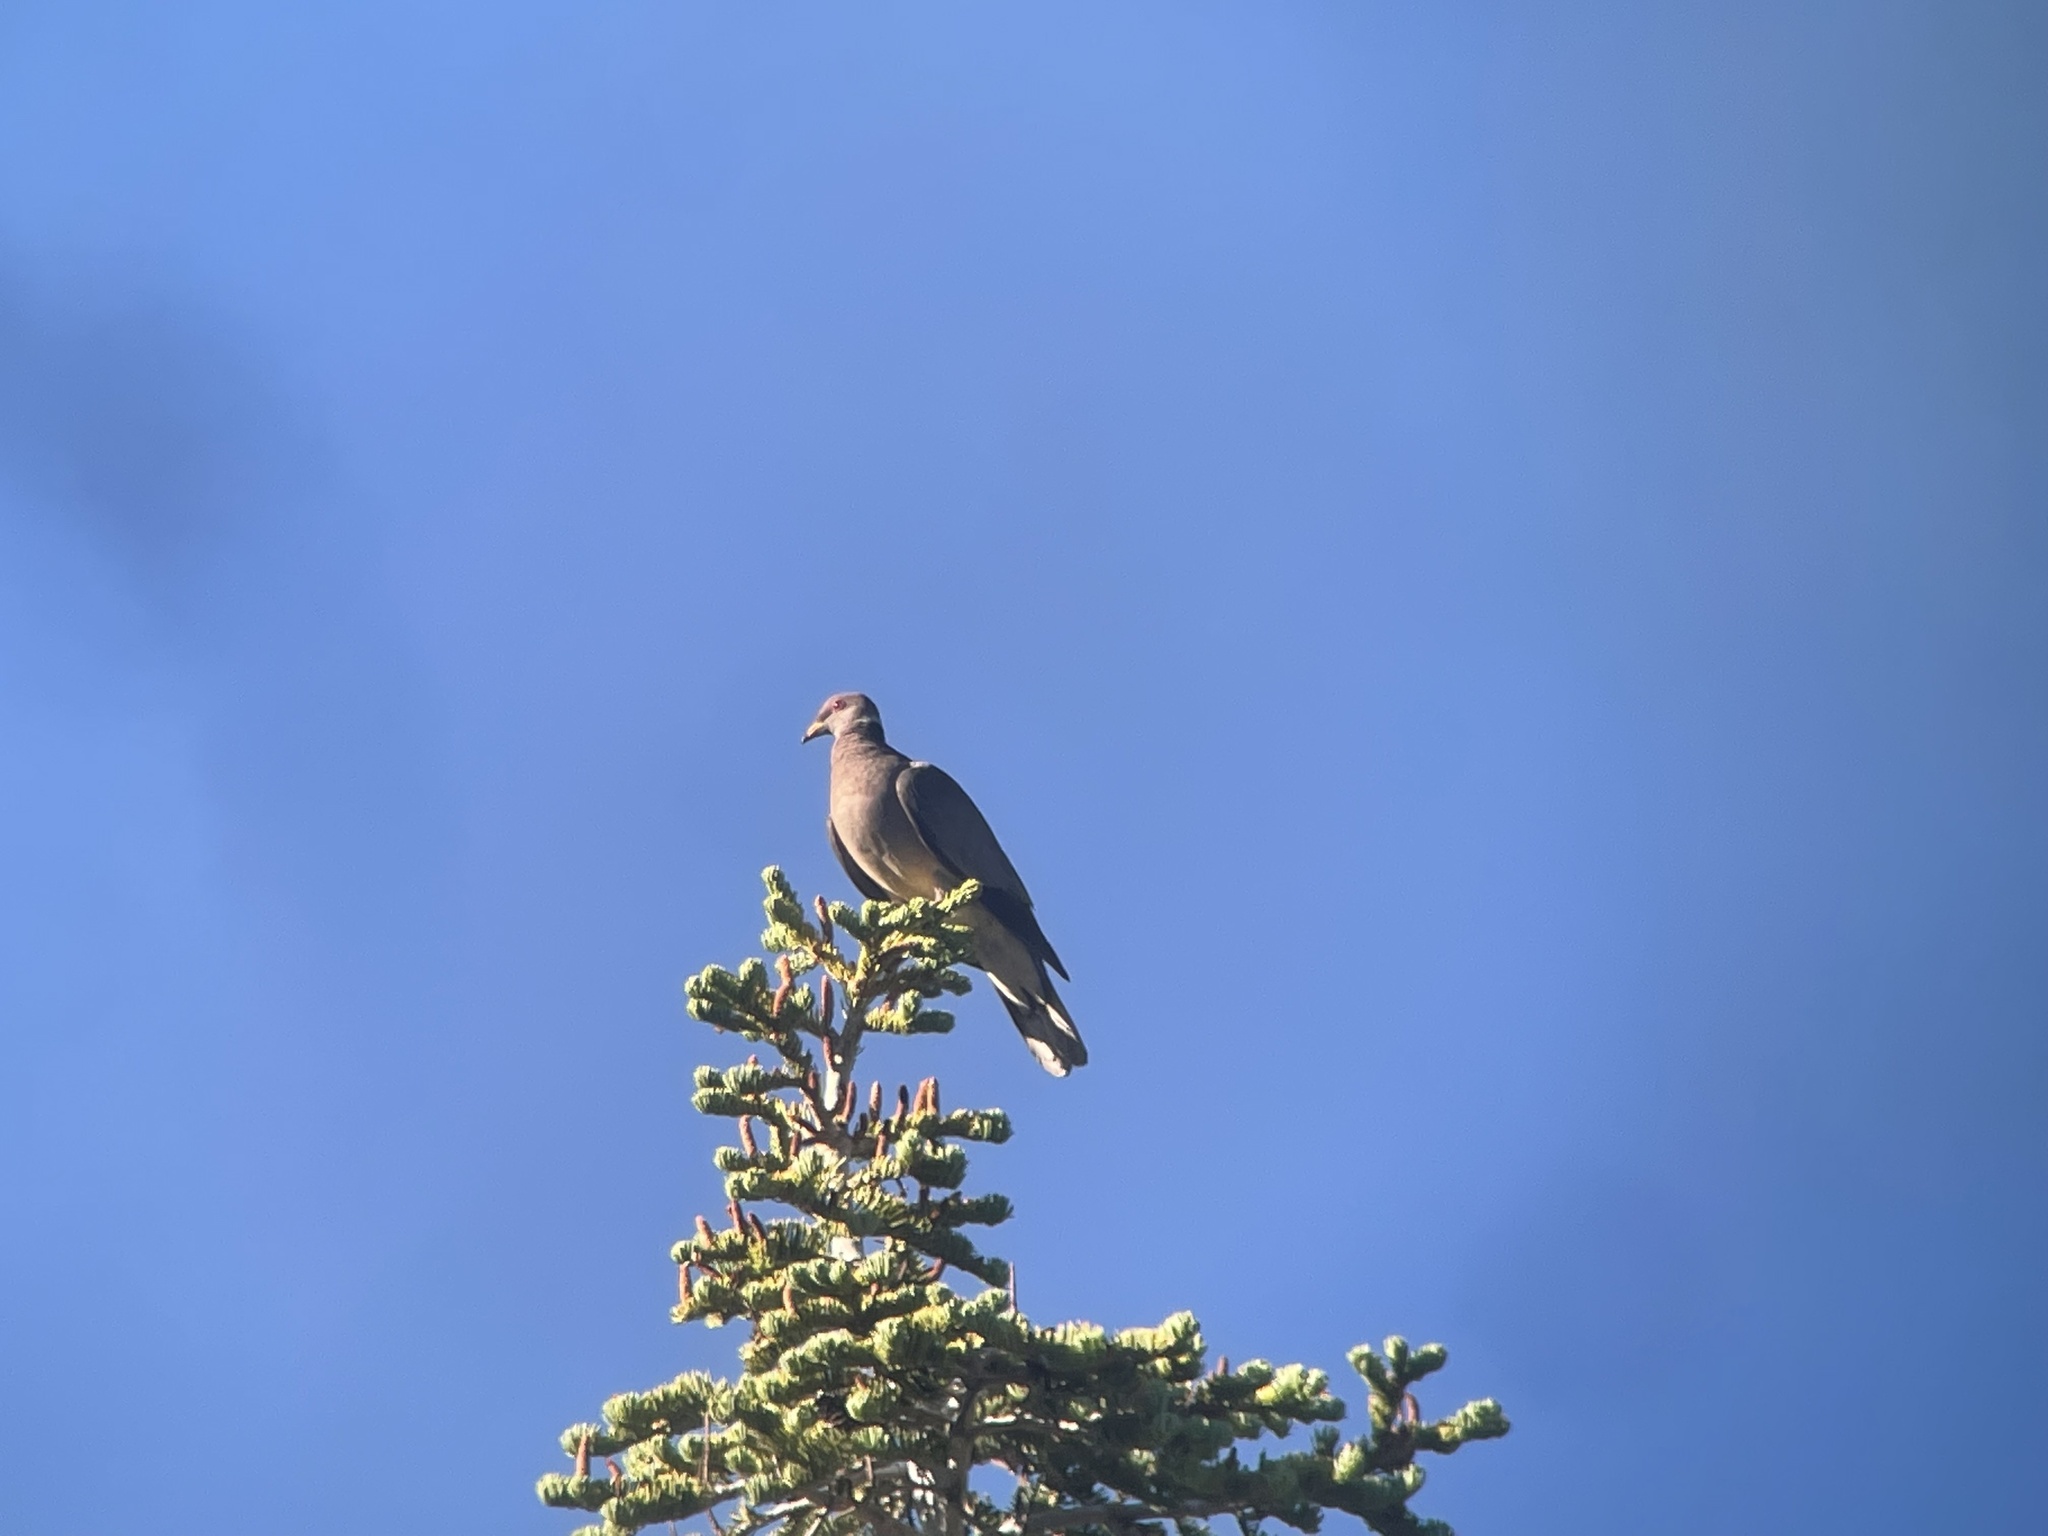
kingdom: Animalia
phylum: Chordata
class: Aves
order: Columbiformes
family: Columbidae
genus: Patagioenas
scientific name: Patagioenas fasciata
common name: Band-tailed pigeon
